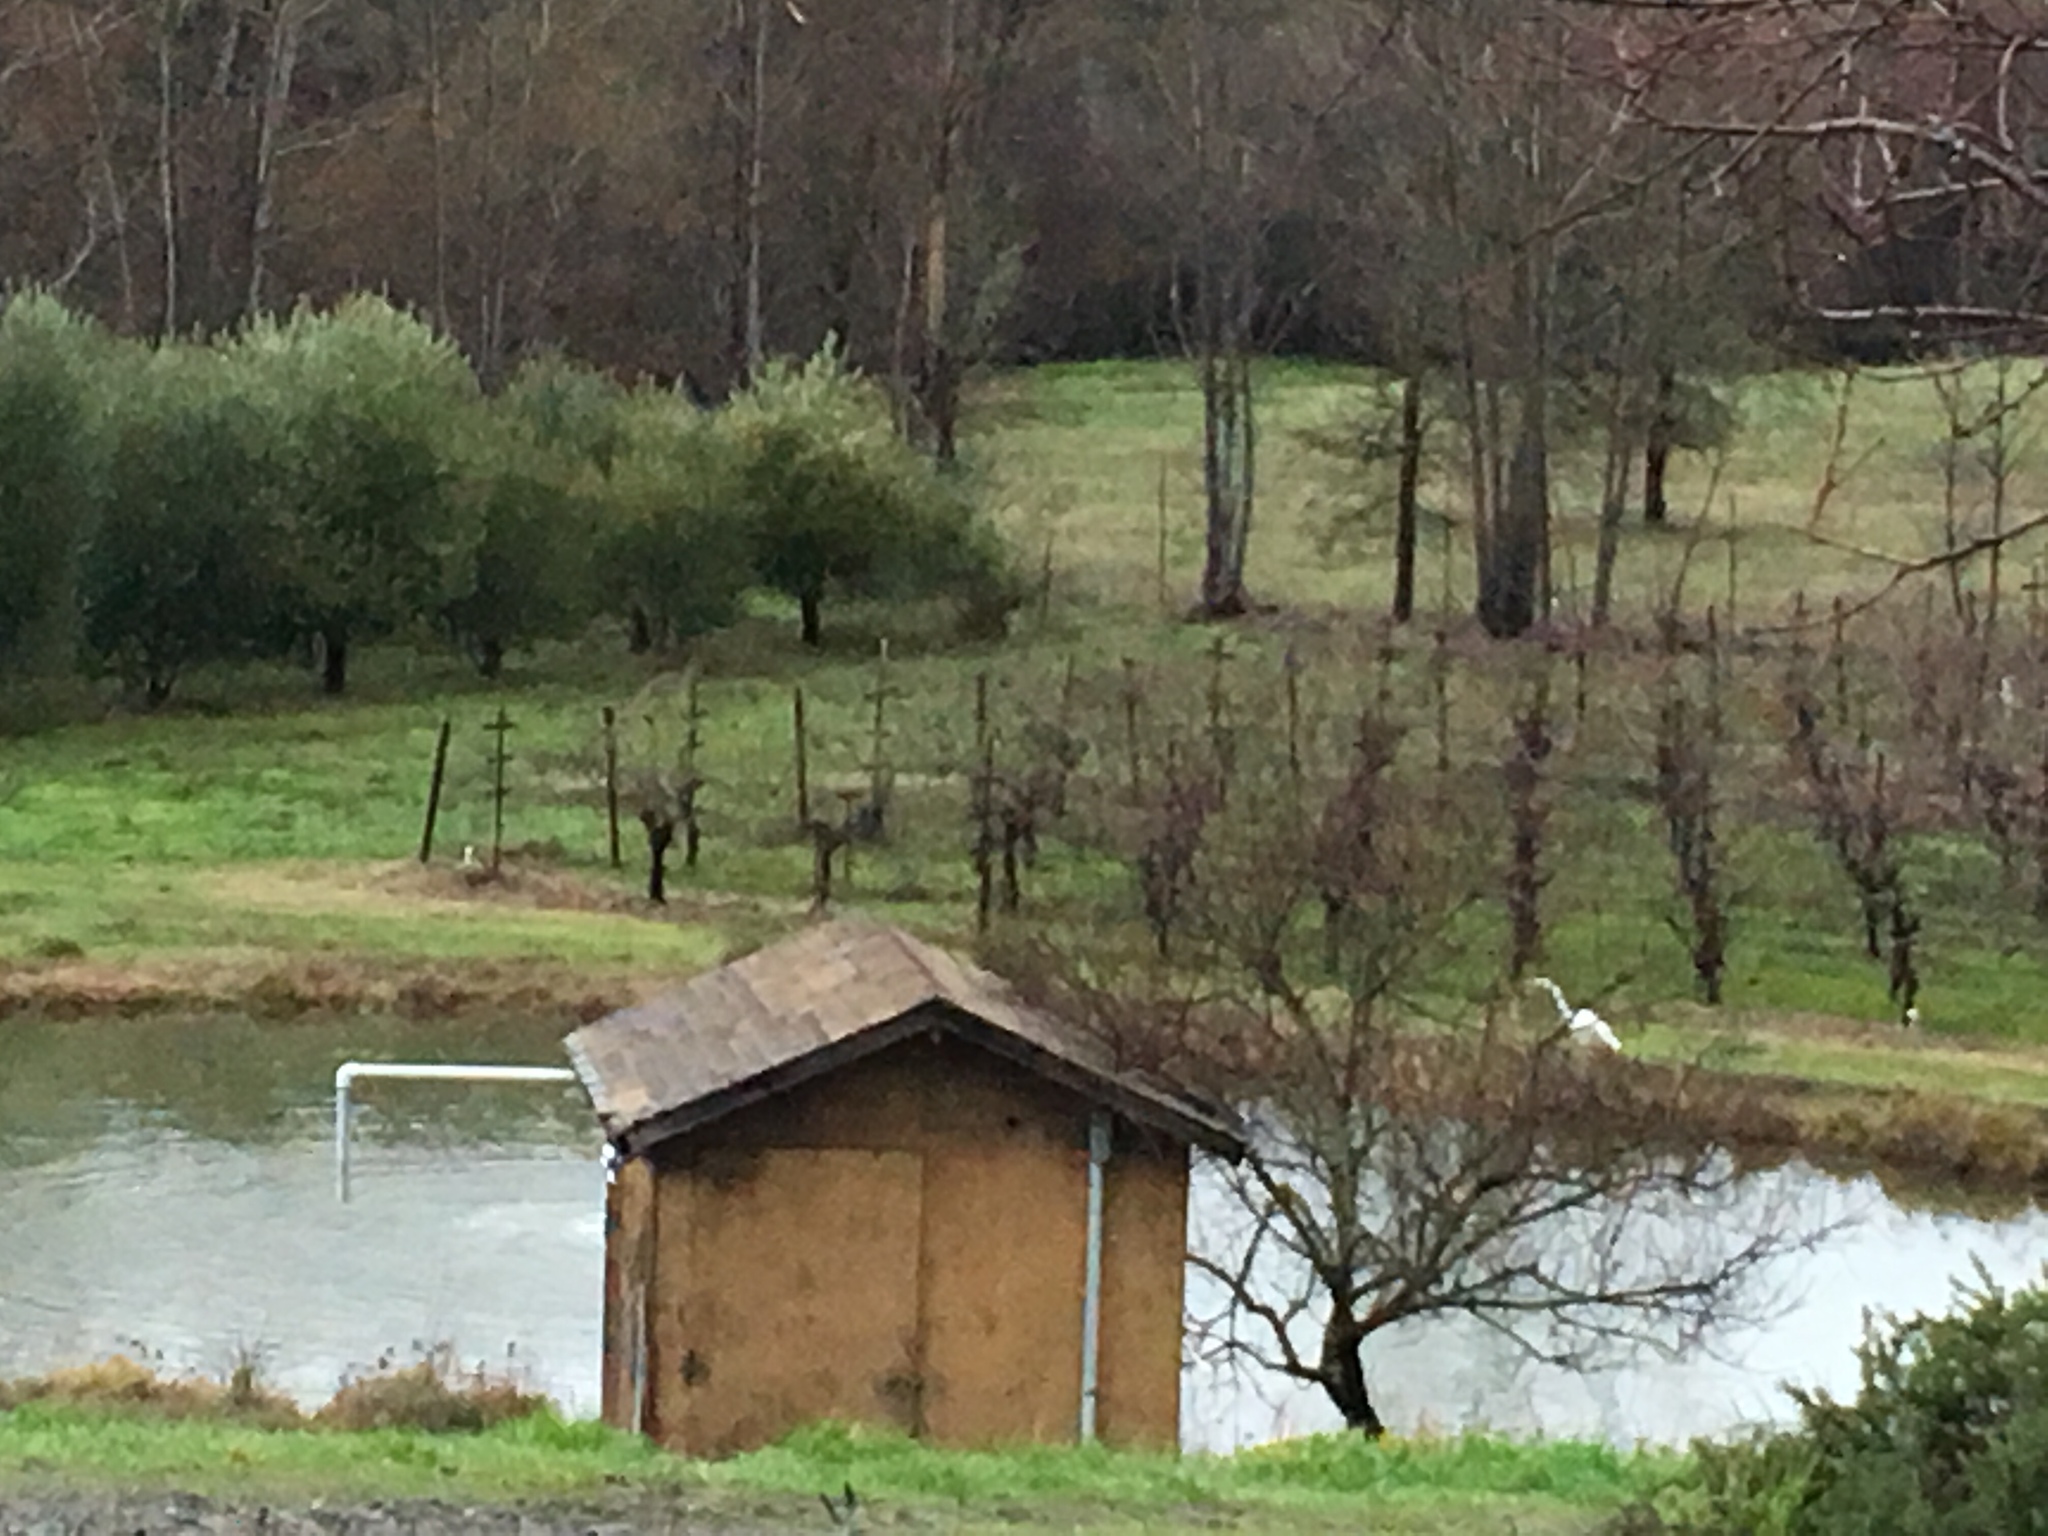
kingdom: Animalia
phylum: Chordata
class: Aves
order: Pelecaniformes
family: Ardeidae
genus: Ardea
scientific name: Ardea alba
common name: Great egret
